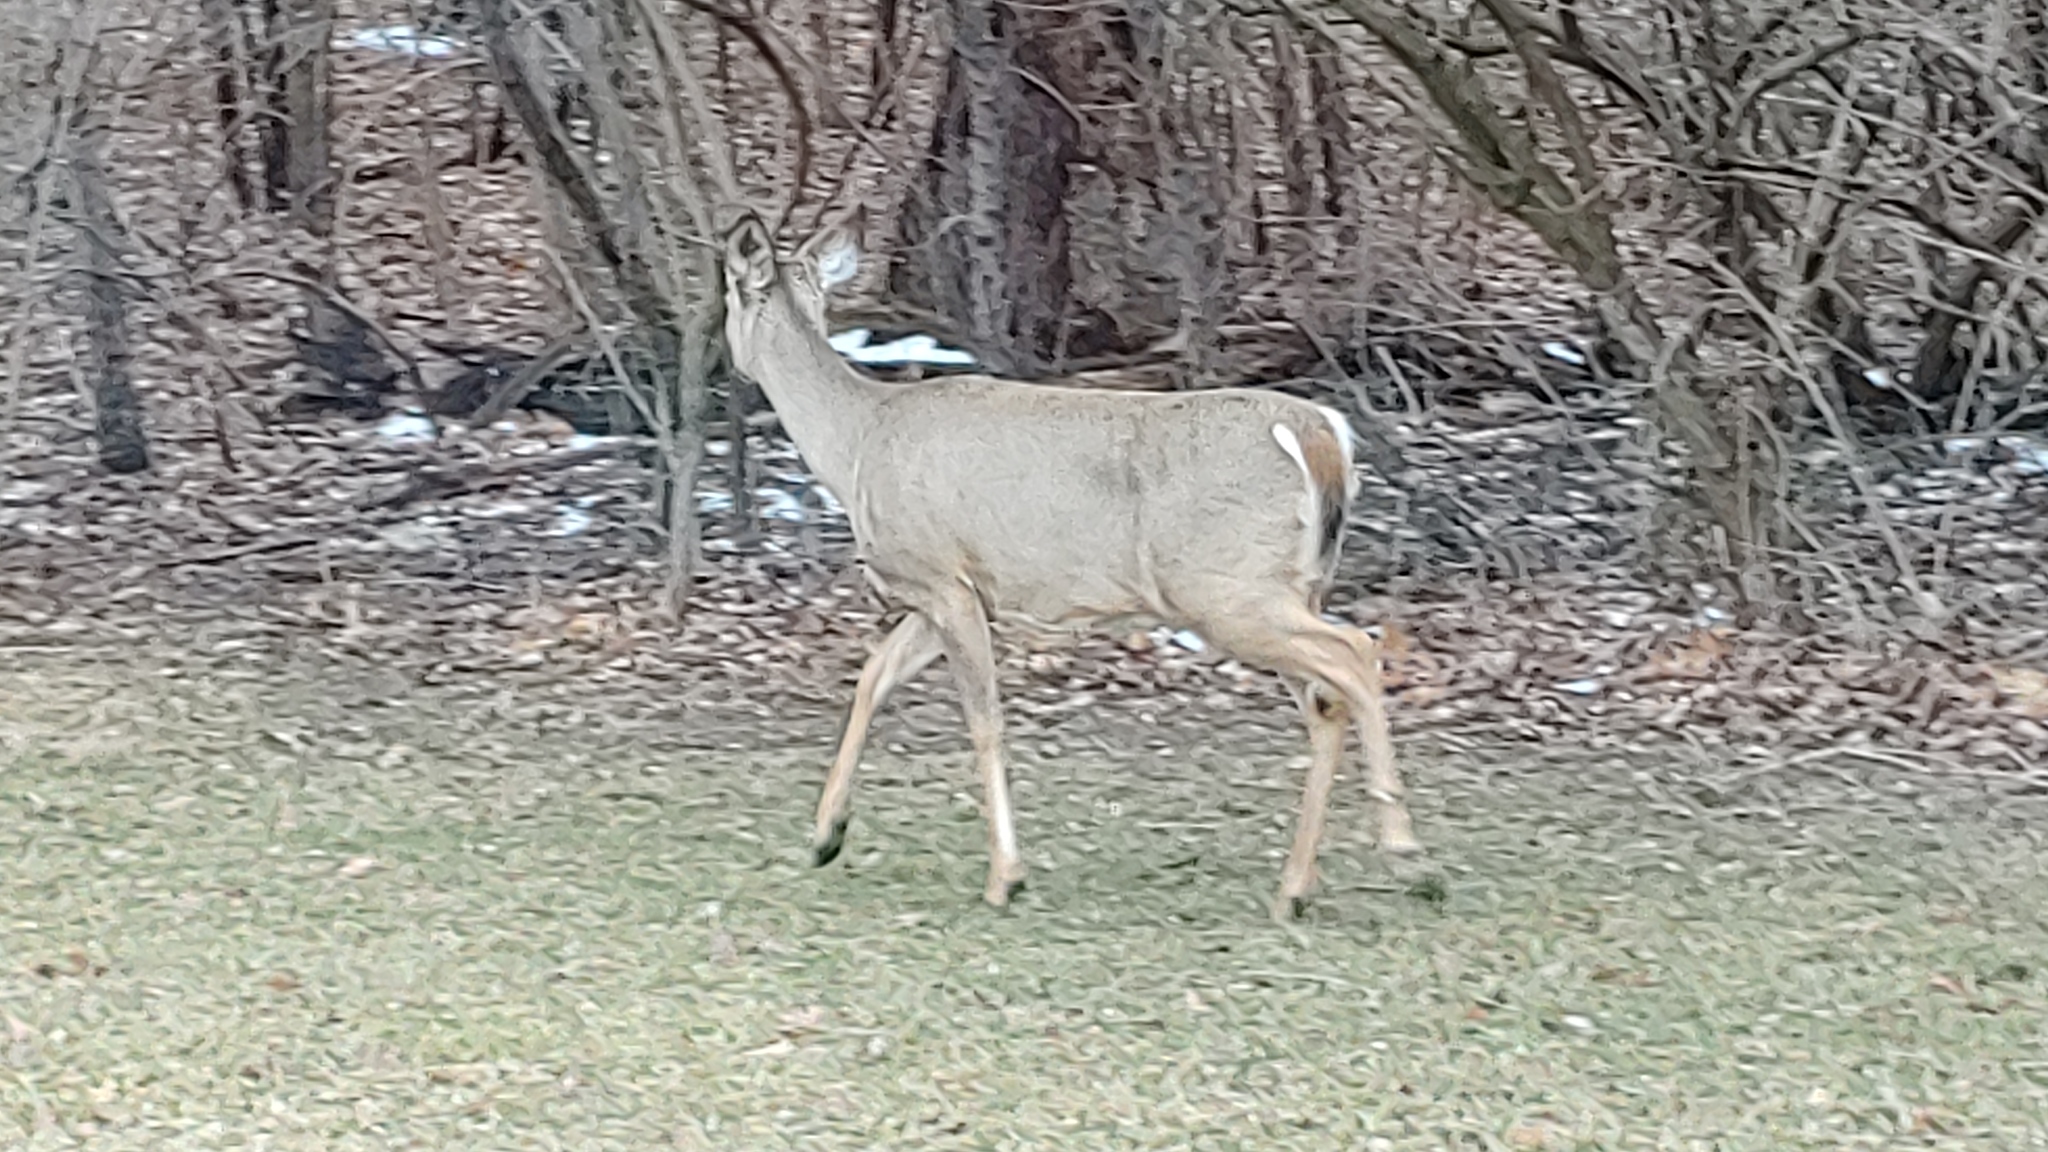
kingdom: Animalia
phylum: Chordata
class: Mammalia
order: Artiodactyla
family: Cervidae
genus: Odocoileus
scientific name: Odocoileus virginianus
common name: White-tailed deer
